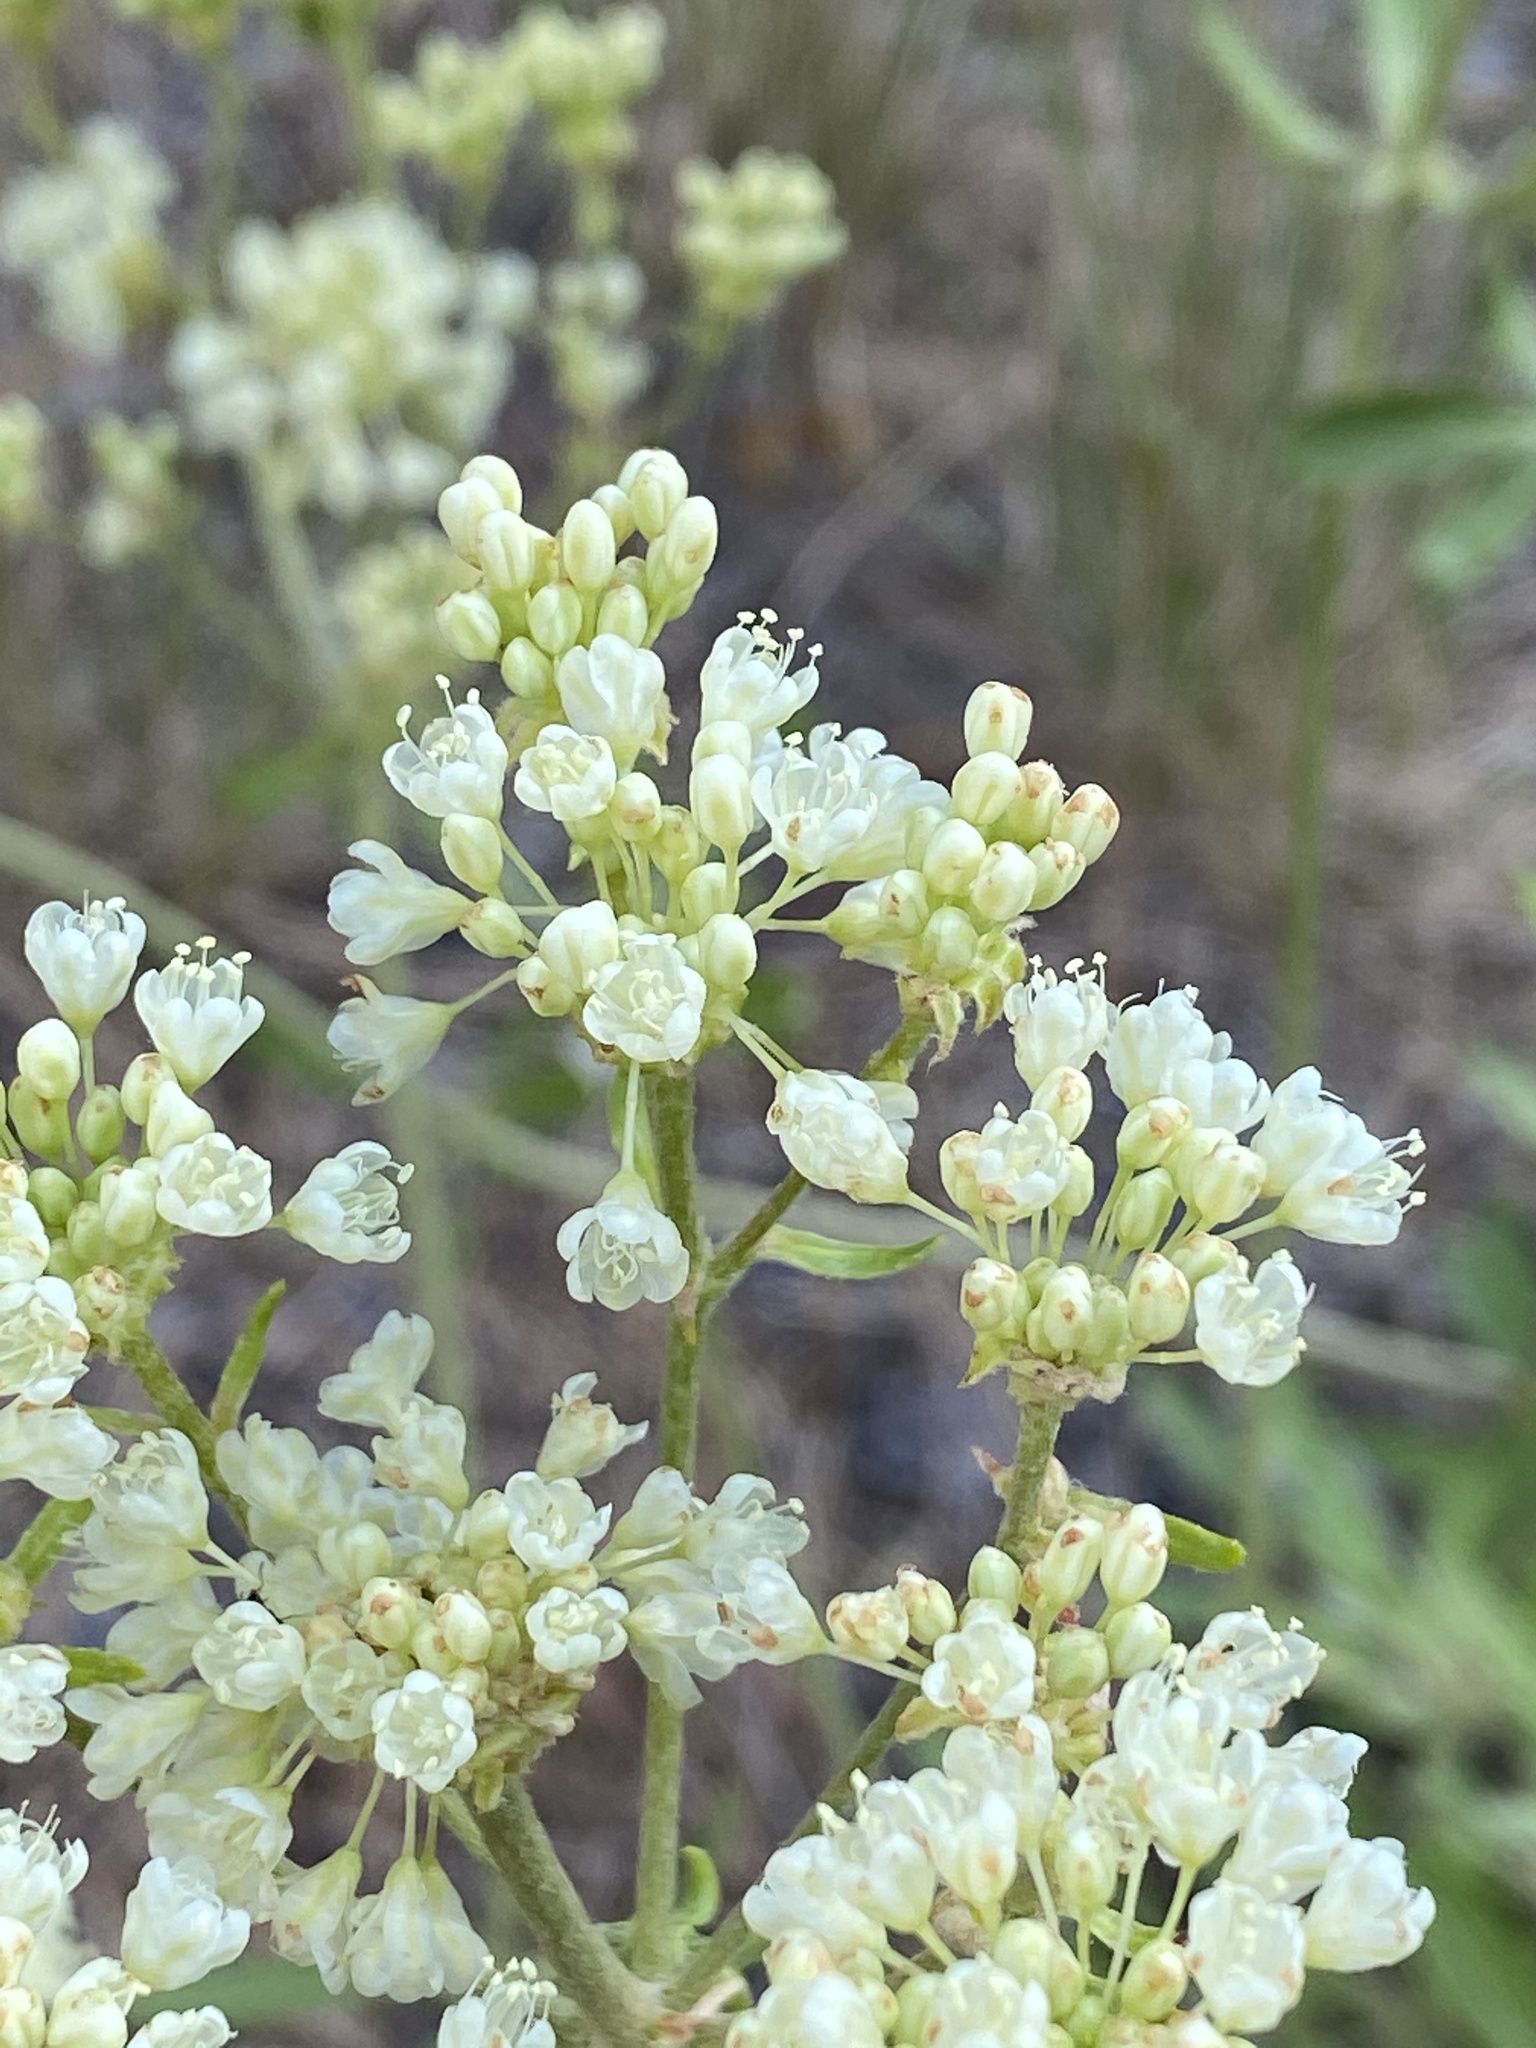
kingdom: Plantae
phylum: Tracheophyta
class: Magnoliopsida
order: Caryophyllales
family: Polygonaceae
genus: Eriogonum
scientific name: Eriogonum heracleoides
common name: Wyeth's buckwheat
